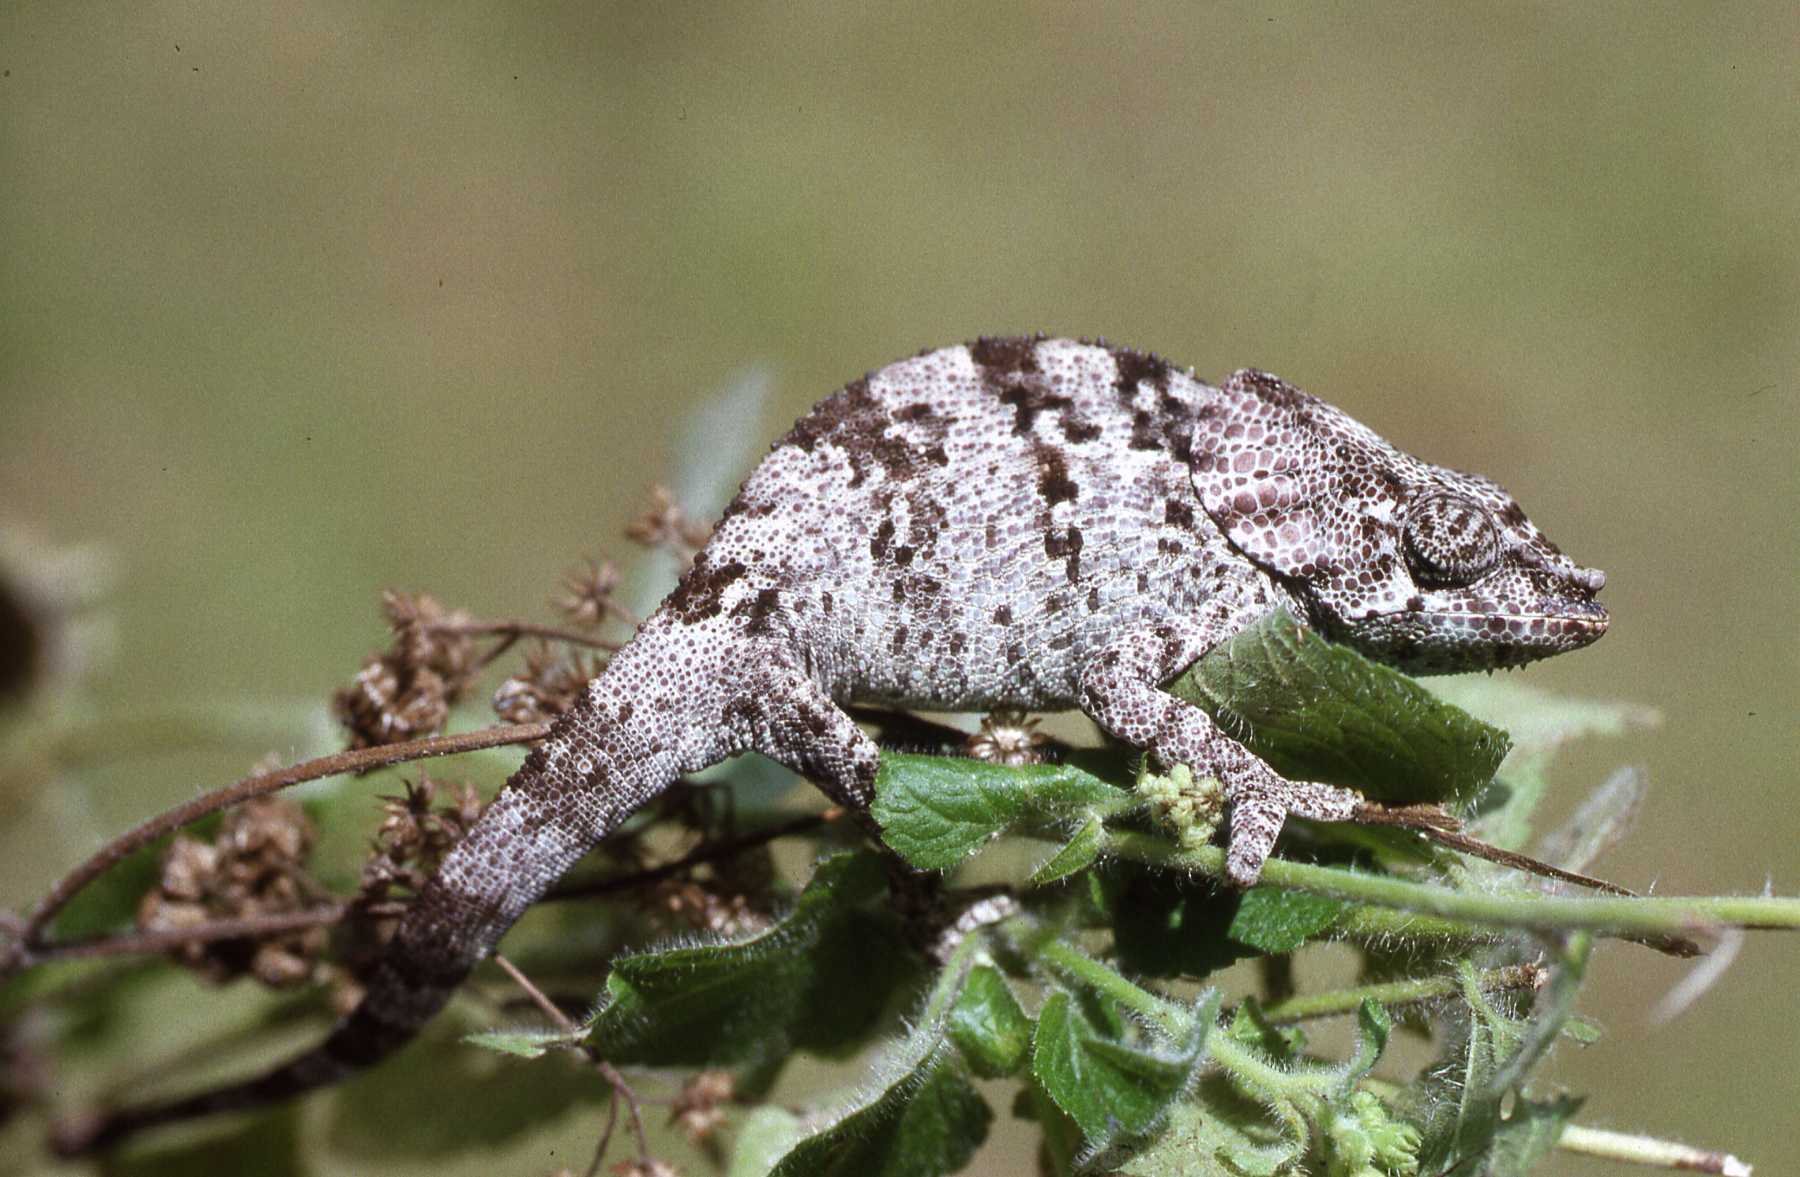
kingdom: Animalia
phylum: Chordata
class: Squamata
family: Chamaeleonidae
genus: Calumma
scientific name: Calumma amber
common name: Amber mountain chameleon
